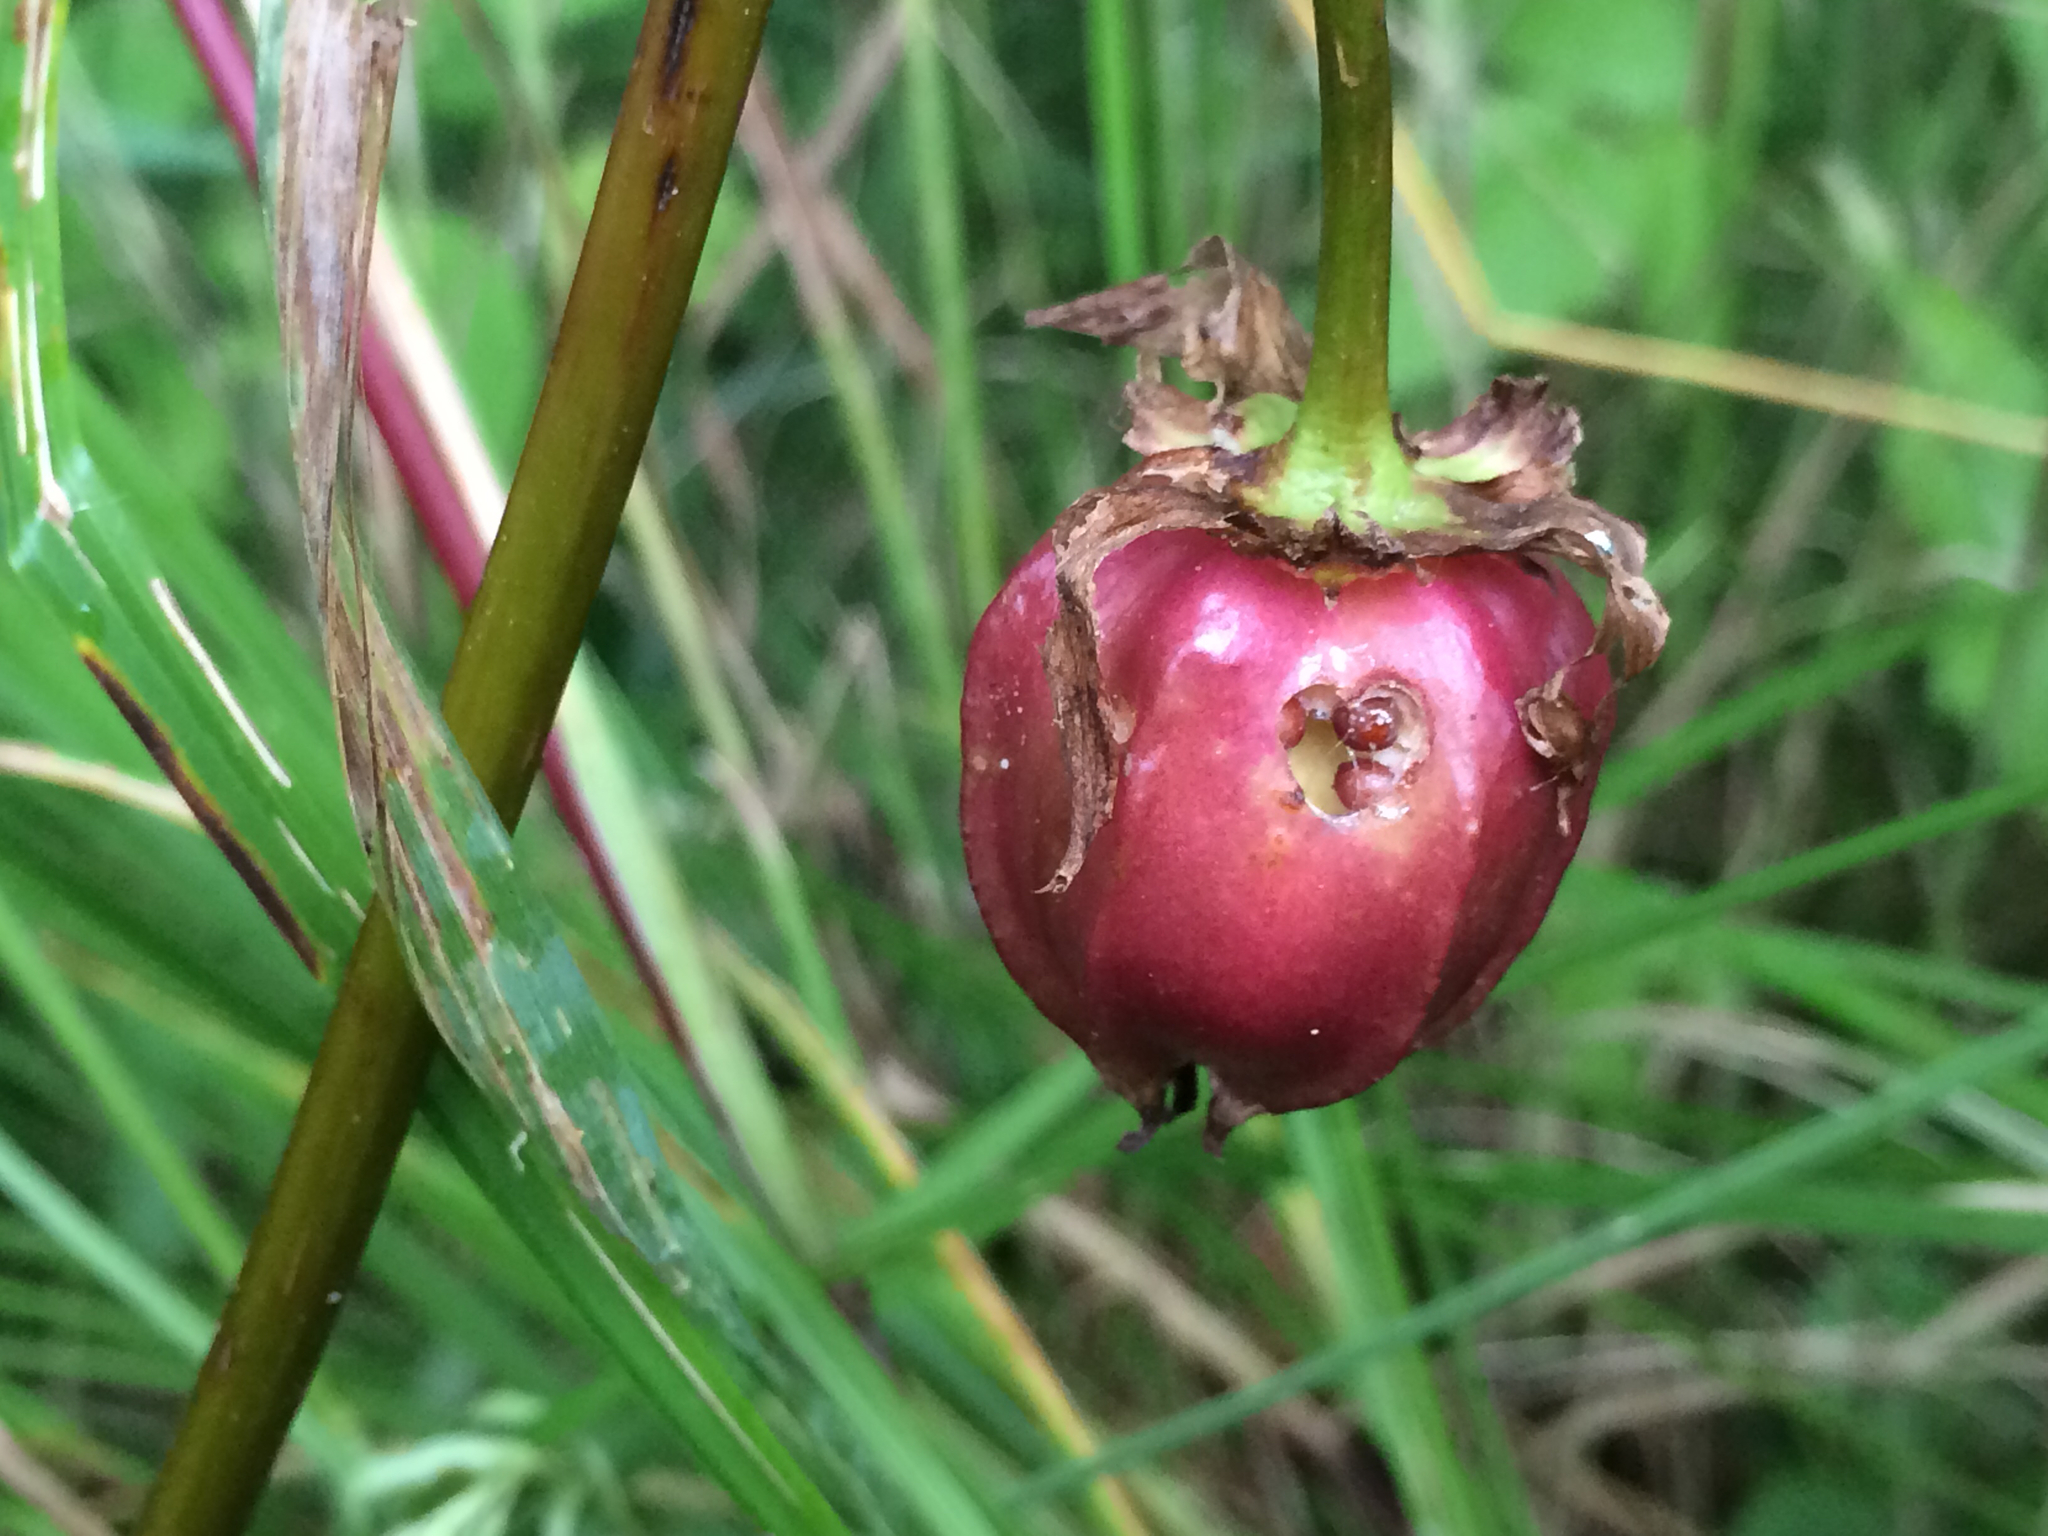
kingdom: Plantae
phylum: Tracheophyta
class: Liliopsida
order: Liliales
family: Melanthiaceae
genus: Trillium
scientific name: Trillium cernuum
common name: Nodding trillium
